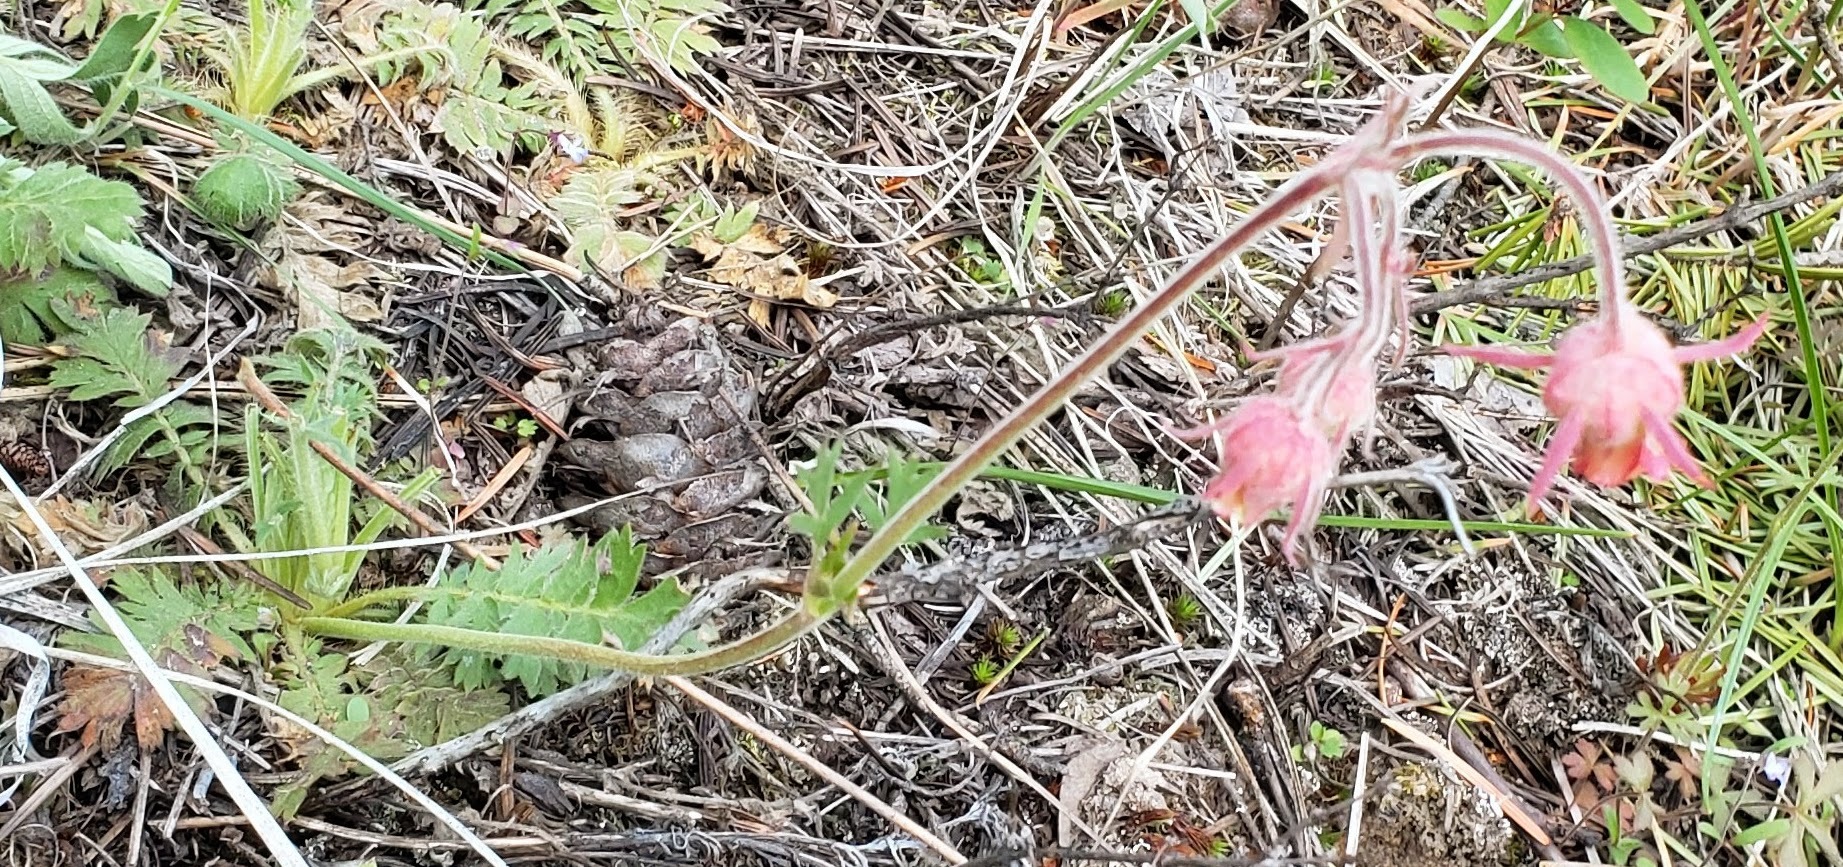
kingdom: Plantae
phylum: Tracheophyta
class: Magnoliopsida
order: Rosales
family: Rosaceae
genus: Geum
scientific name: Geum triflorum
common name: Old man's whiskers
